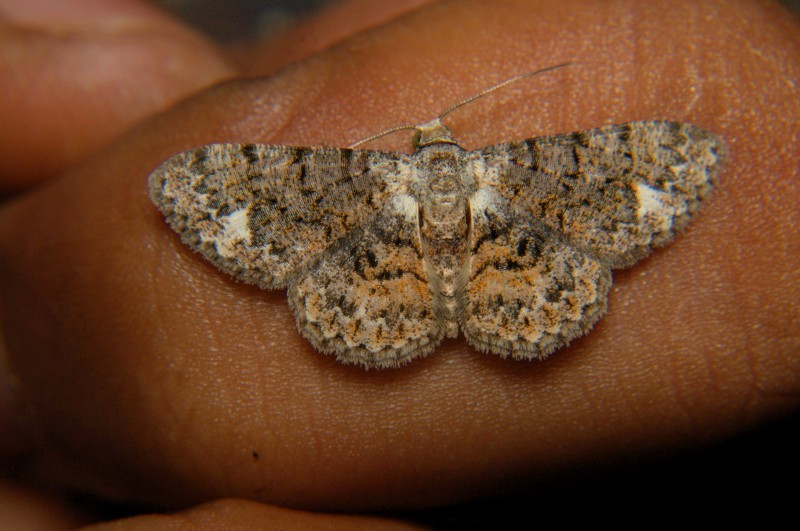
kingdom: Animalia
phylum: Arthropoda
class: Insecta
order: Lepidoptera
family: Geometridae
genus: Myrioblephara
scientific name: Myrioblephara idaeoides
